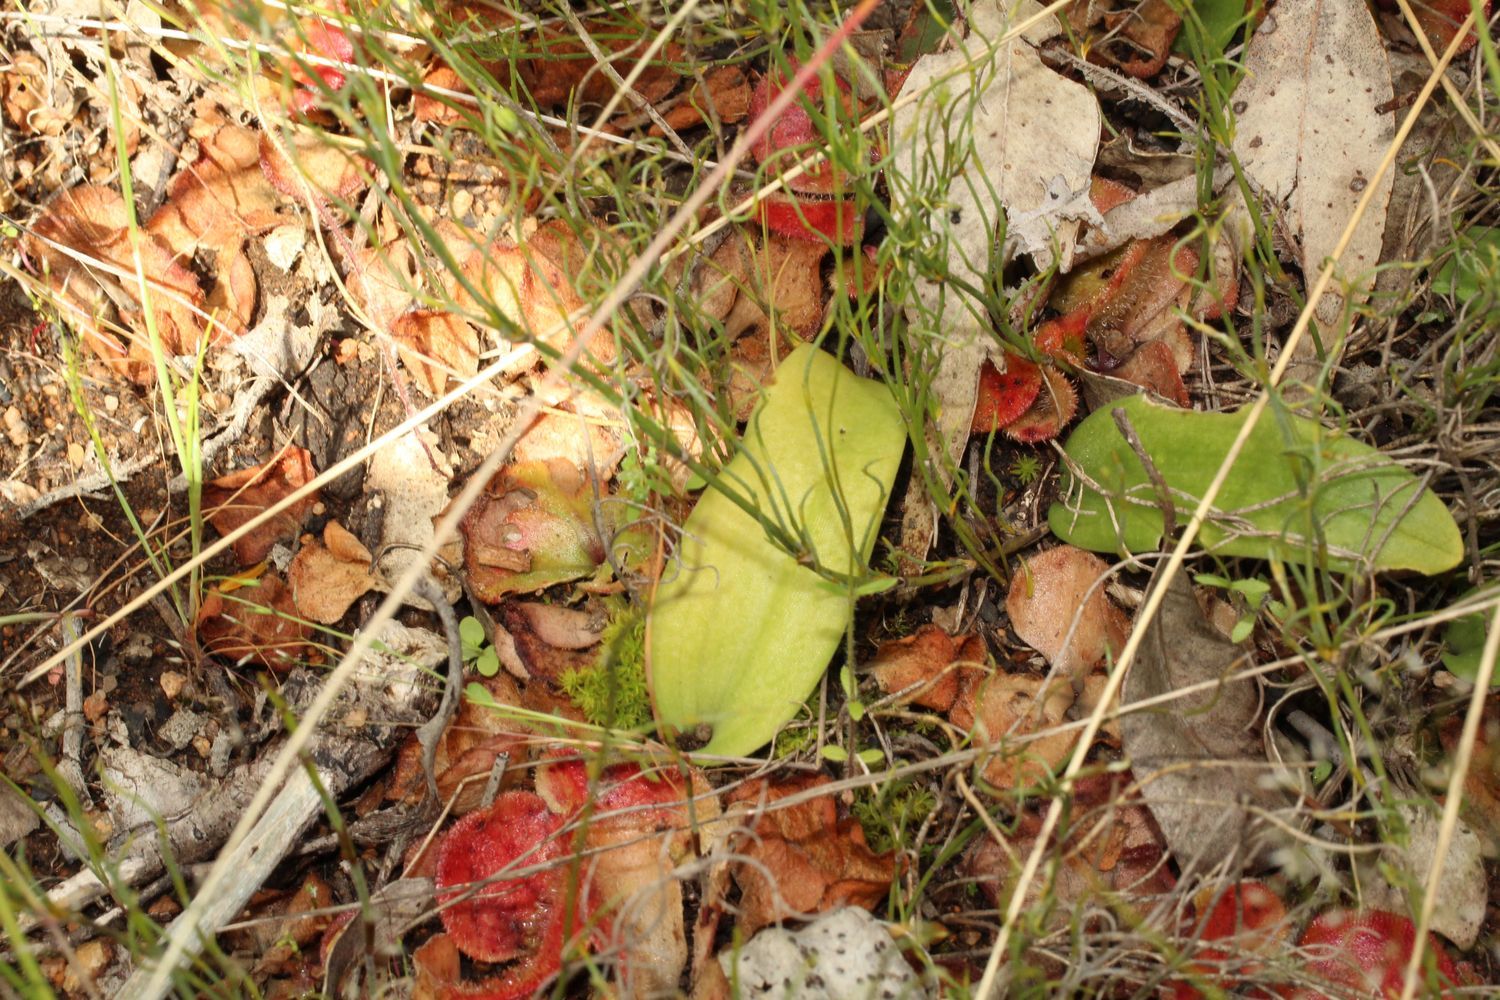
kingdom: Plantae
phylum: Tracheophyta
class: Liliopsida
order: Asparagales
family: Orchidaceae
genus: Leptoceras
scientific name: Leptoceras menziesii
